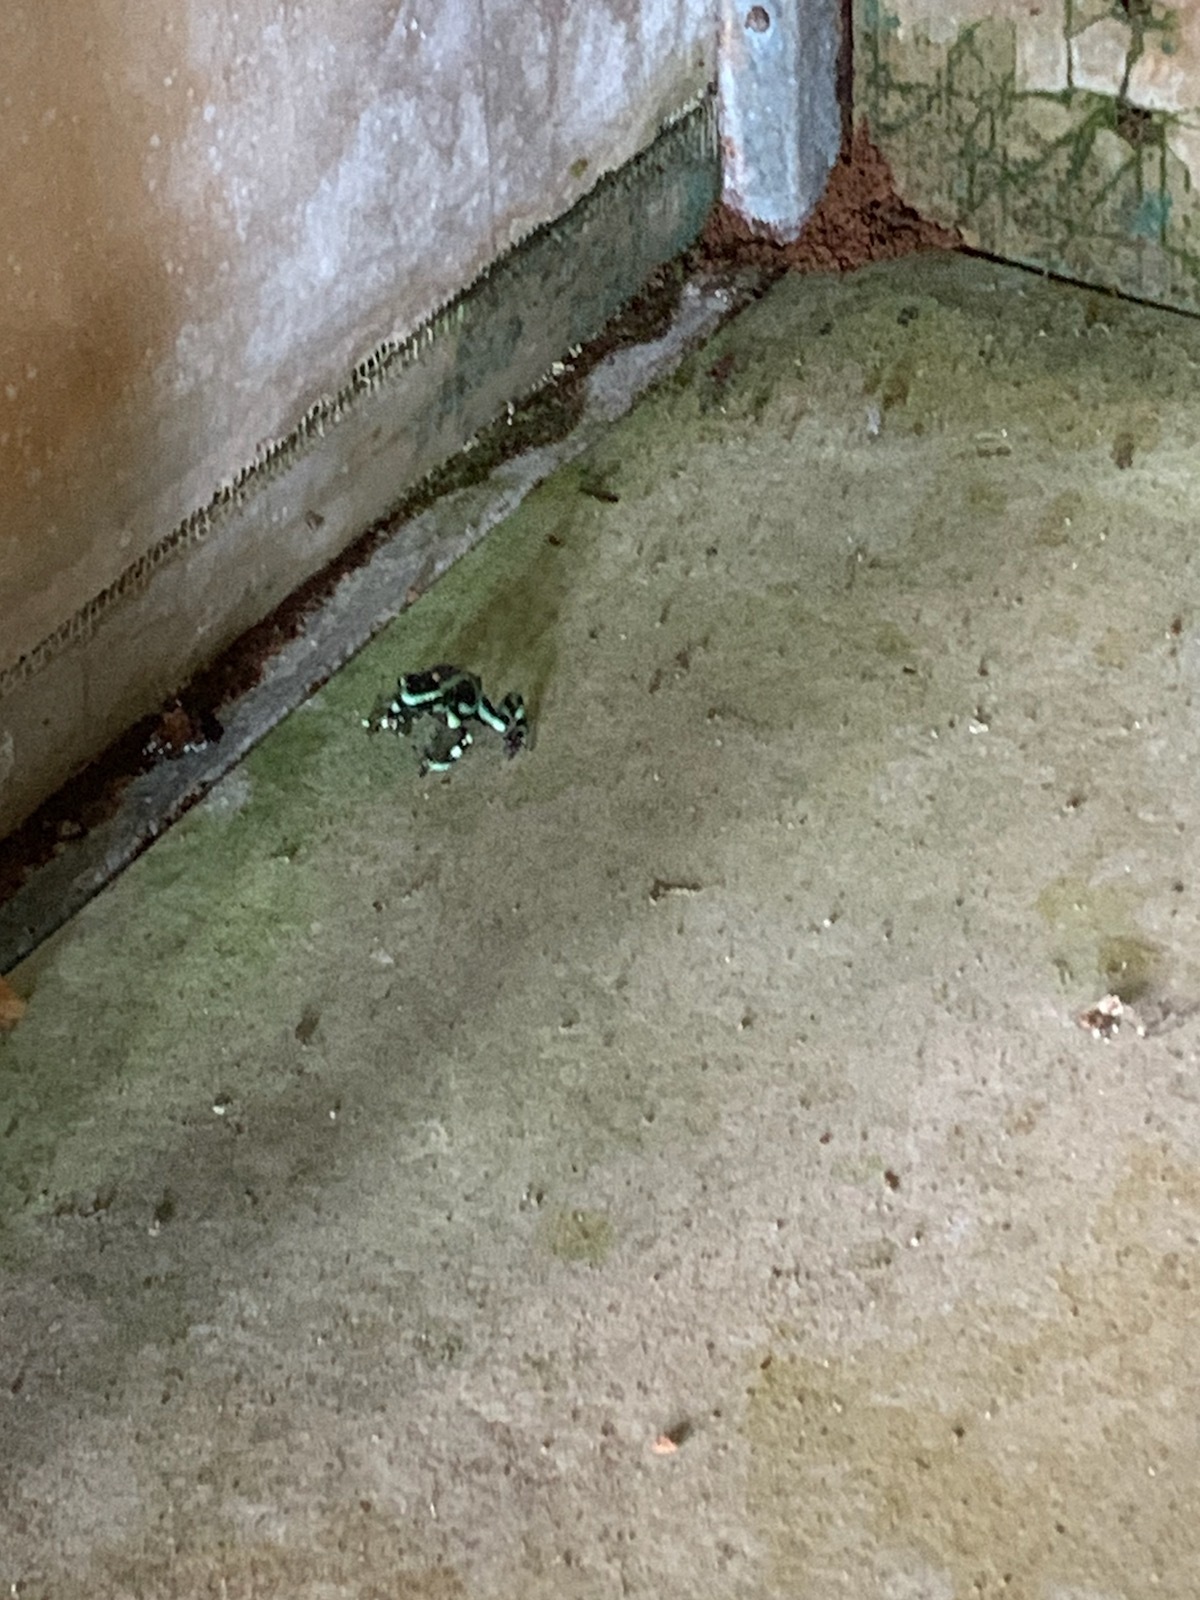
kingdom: Animalia
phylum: Chordata
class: Amphibia
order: Anura
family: Dendrobatidae
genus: Dendrobates
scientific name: Dendrobates auratus
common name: Green and black poison dart frog
